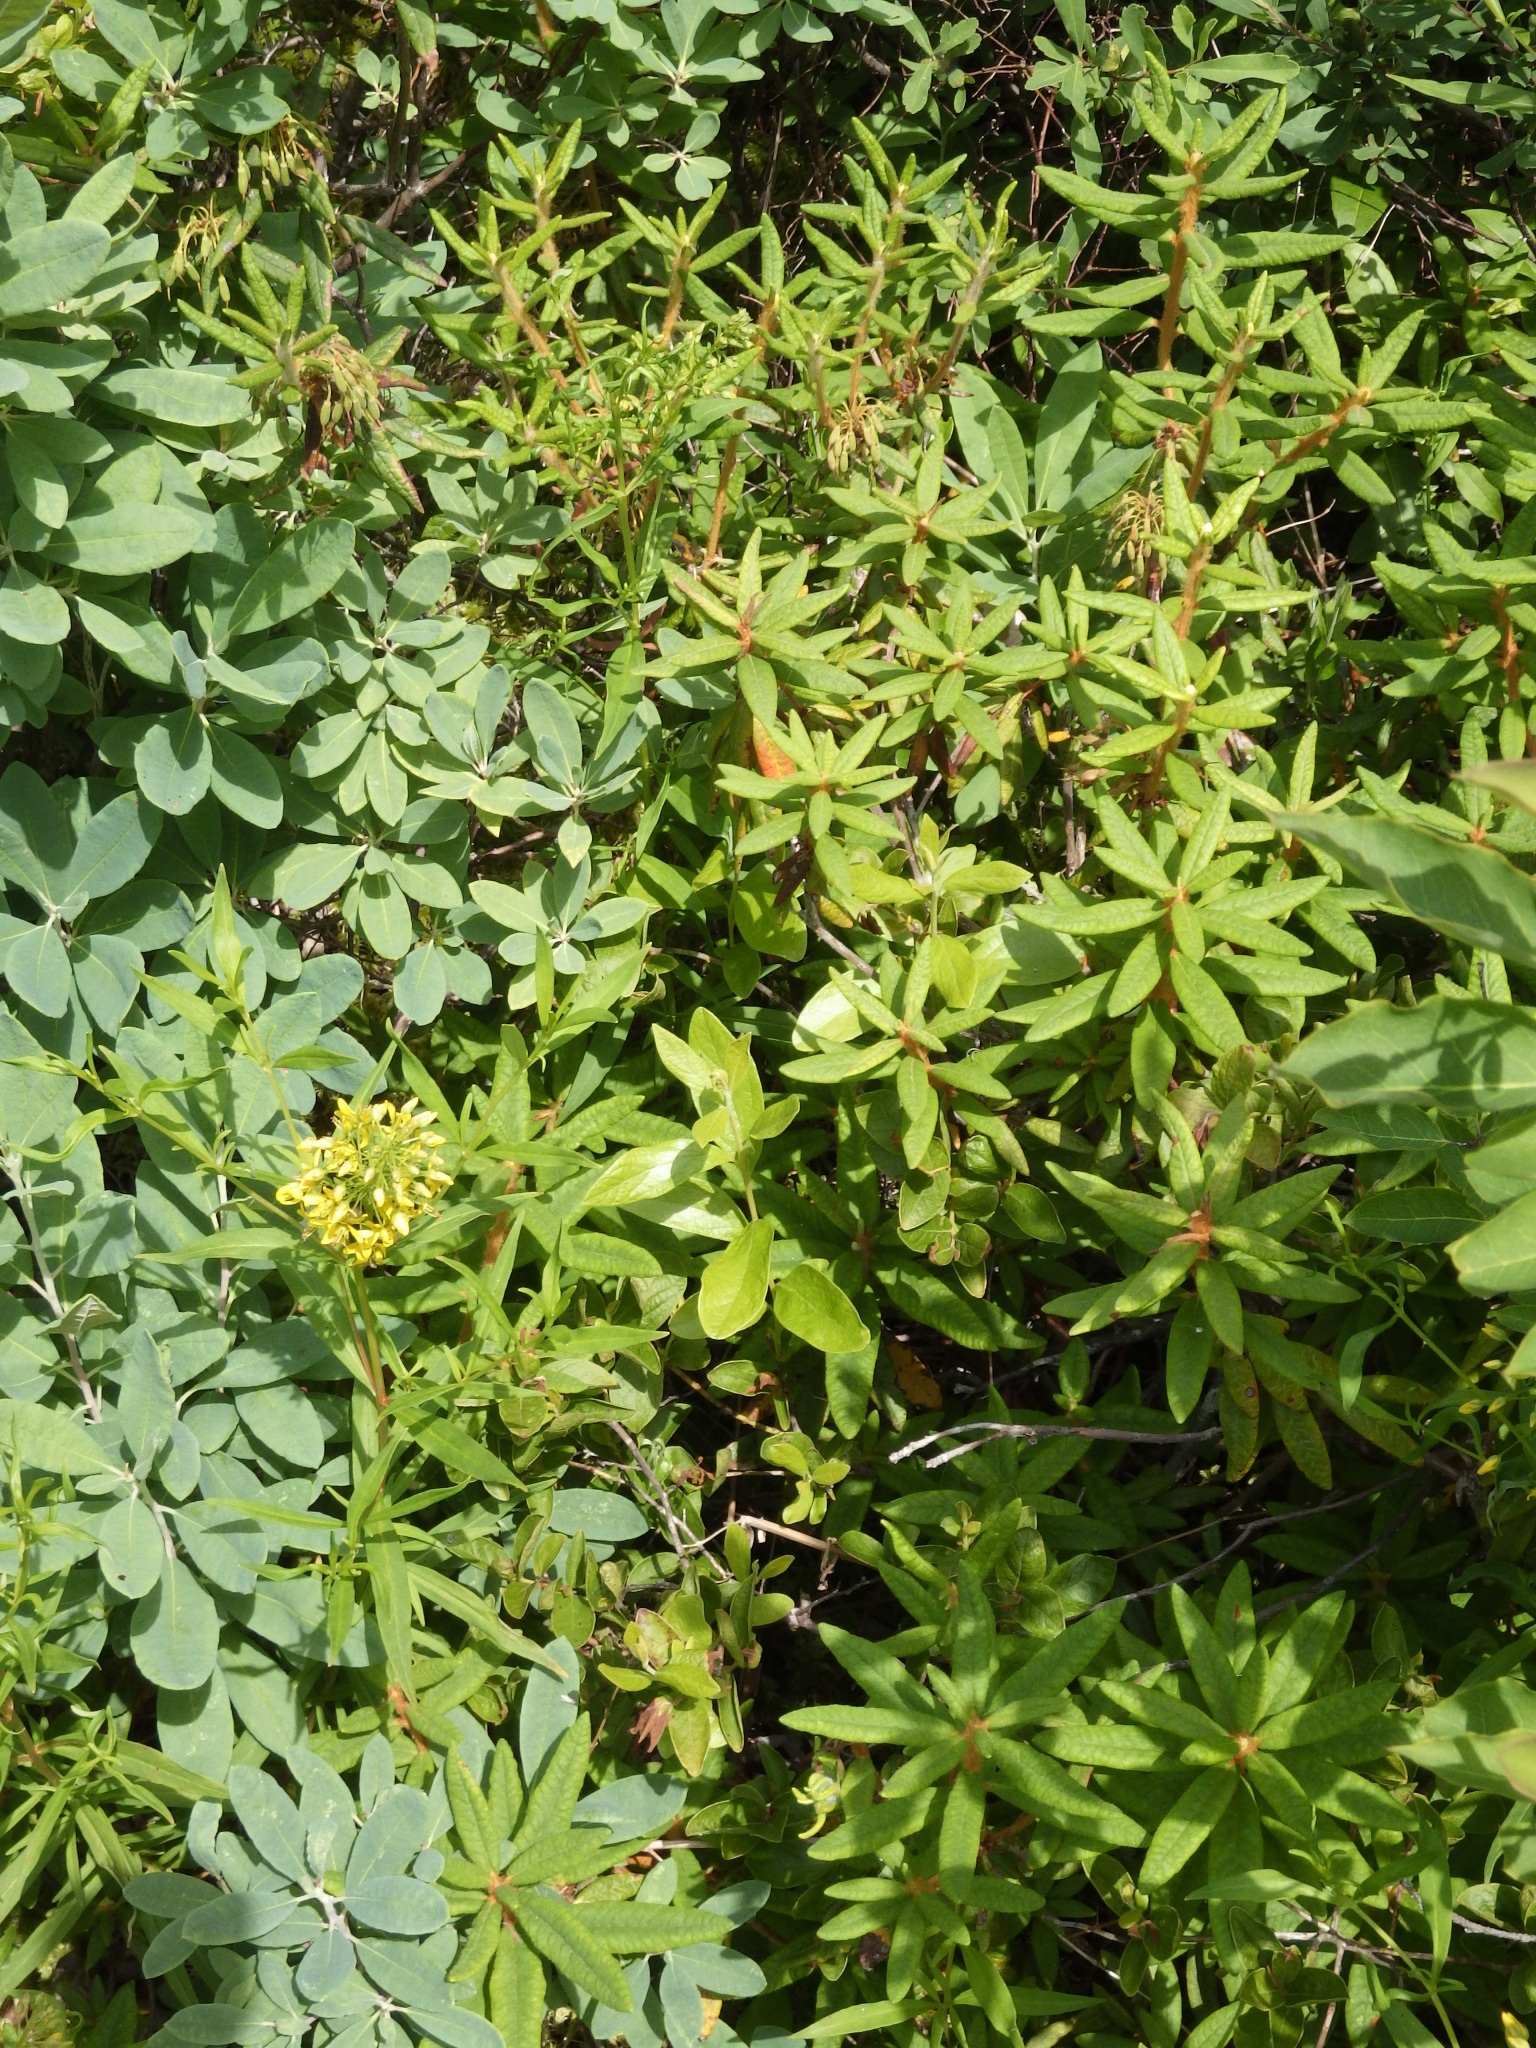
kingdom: Plantae
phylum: Tracheophyta
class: Magnoliopsida
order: Ericales
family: Ericaceae
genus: Rhododendron
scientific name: Rhododendron groenlandicum
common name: Bog labrador tea
